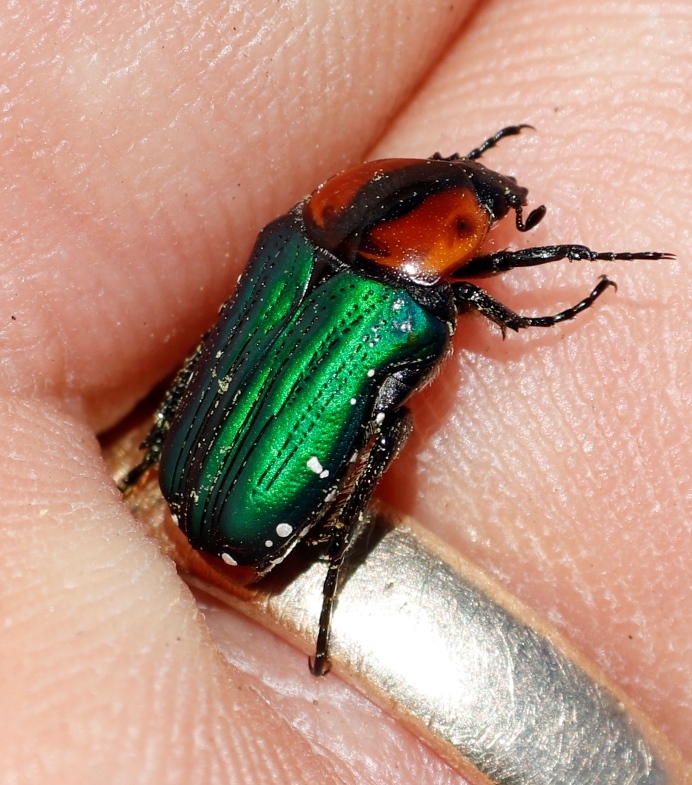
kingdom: Animalia
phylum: Arthropoda
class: Insecta
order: Coleoptera
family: Scarabaeidae
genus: Leucocelis
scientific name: Leucocelis amethystina
